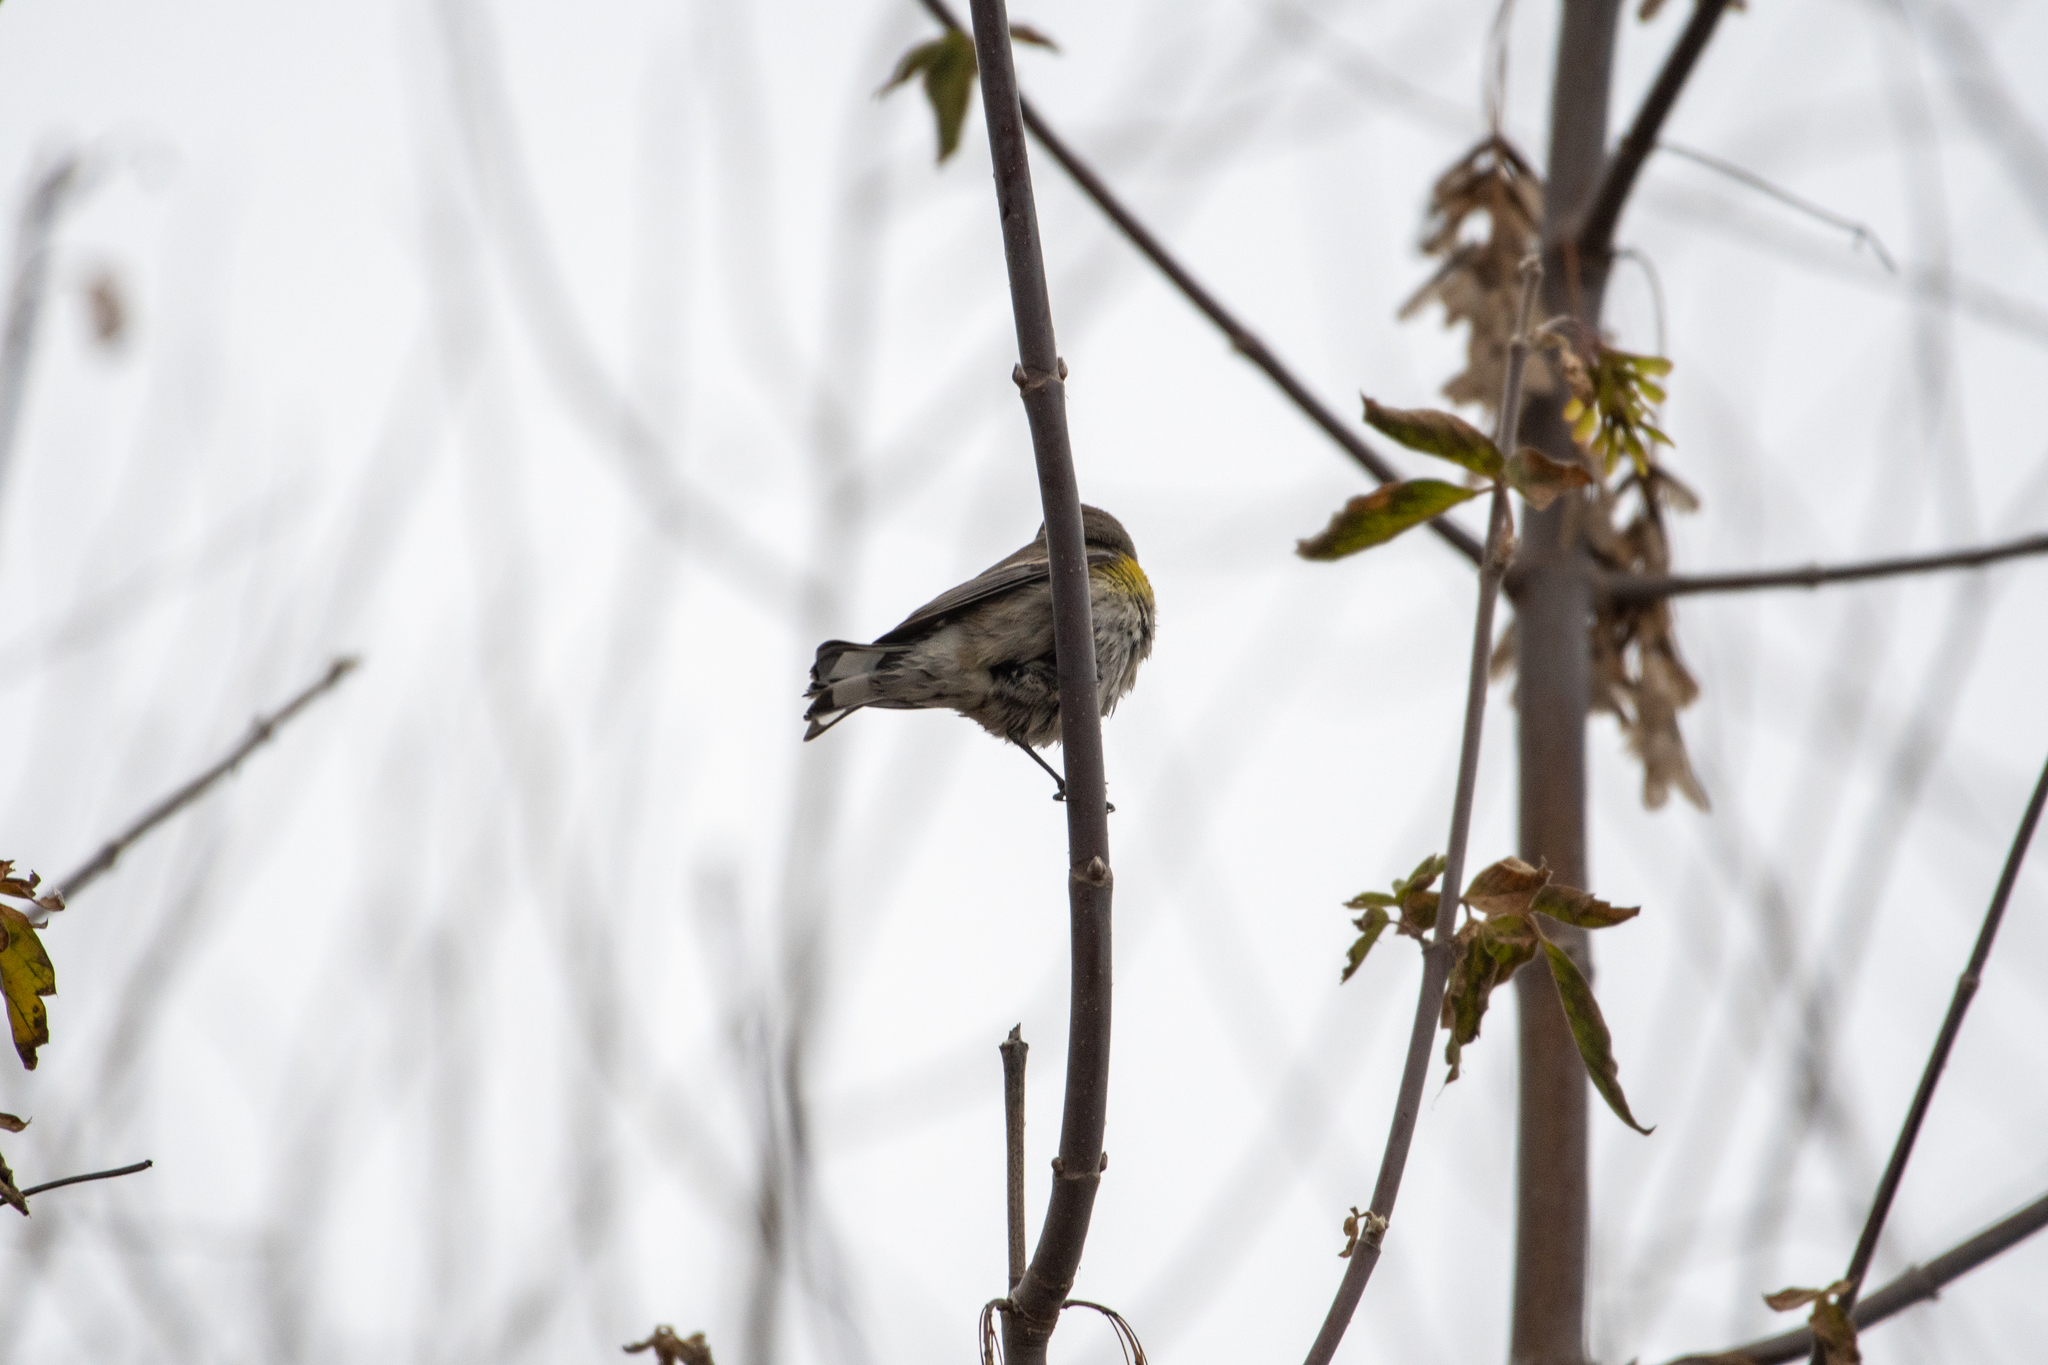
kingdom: Animalia
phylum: Chordata
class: Aves
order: Passeriformes
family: Parulidae
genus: Setophaga
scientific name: Setophaga coronata
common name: Myrtle warbler
